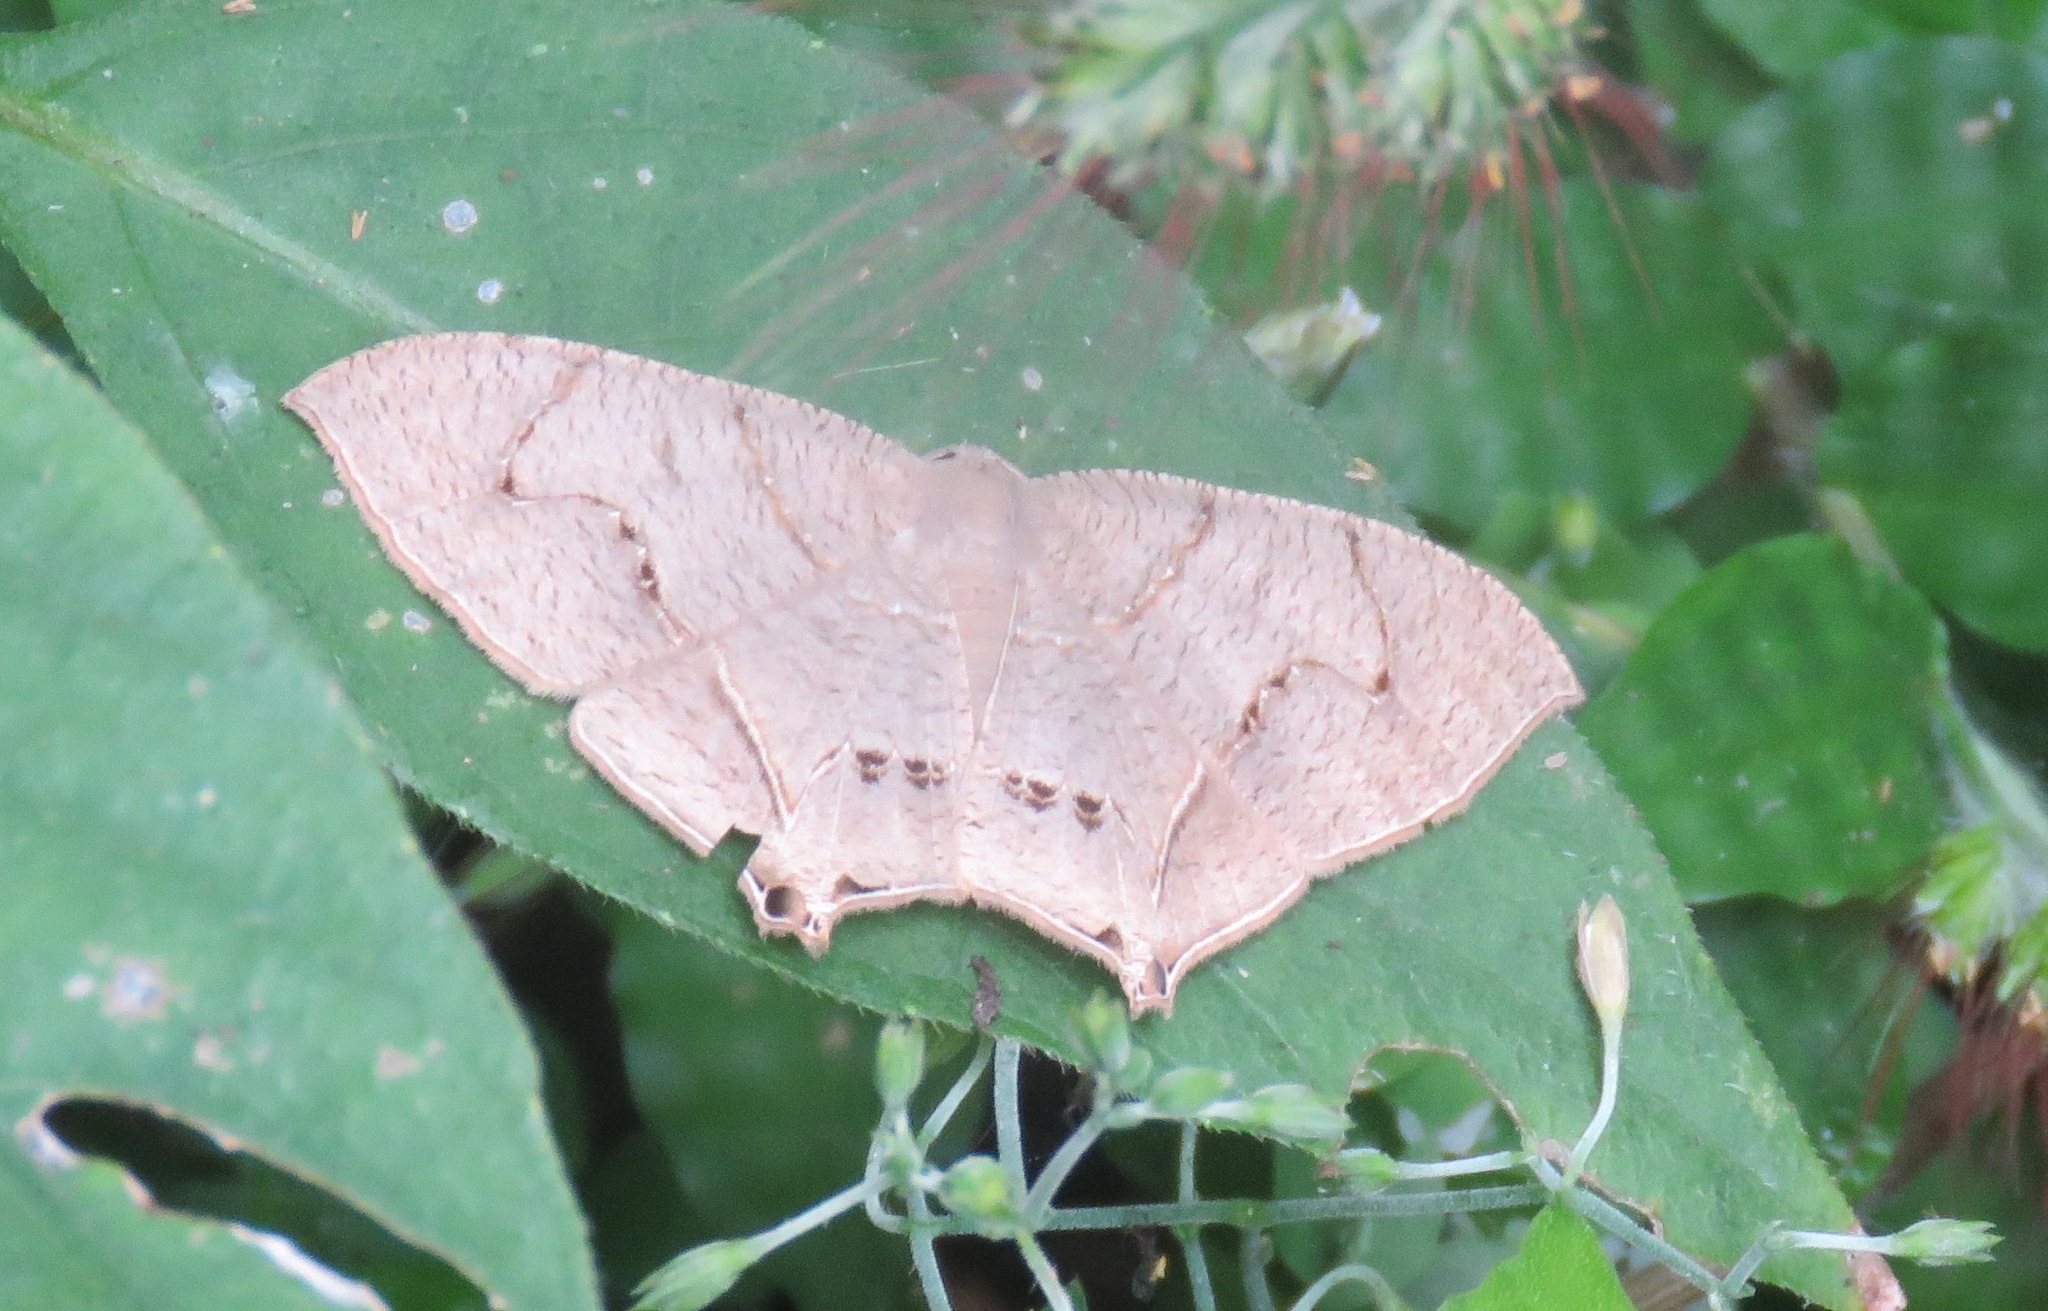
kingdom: Animalia
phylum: Arthropoda
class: Insecta
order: Lepidoptera
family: Uraniidae
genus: Psamathia
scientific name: Psamathia
